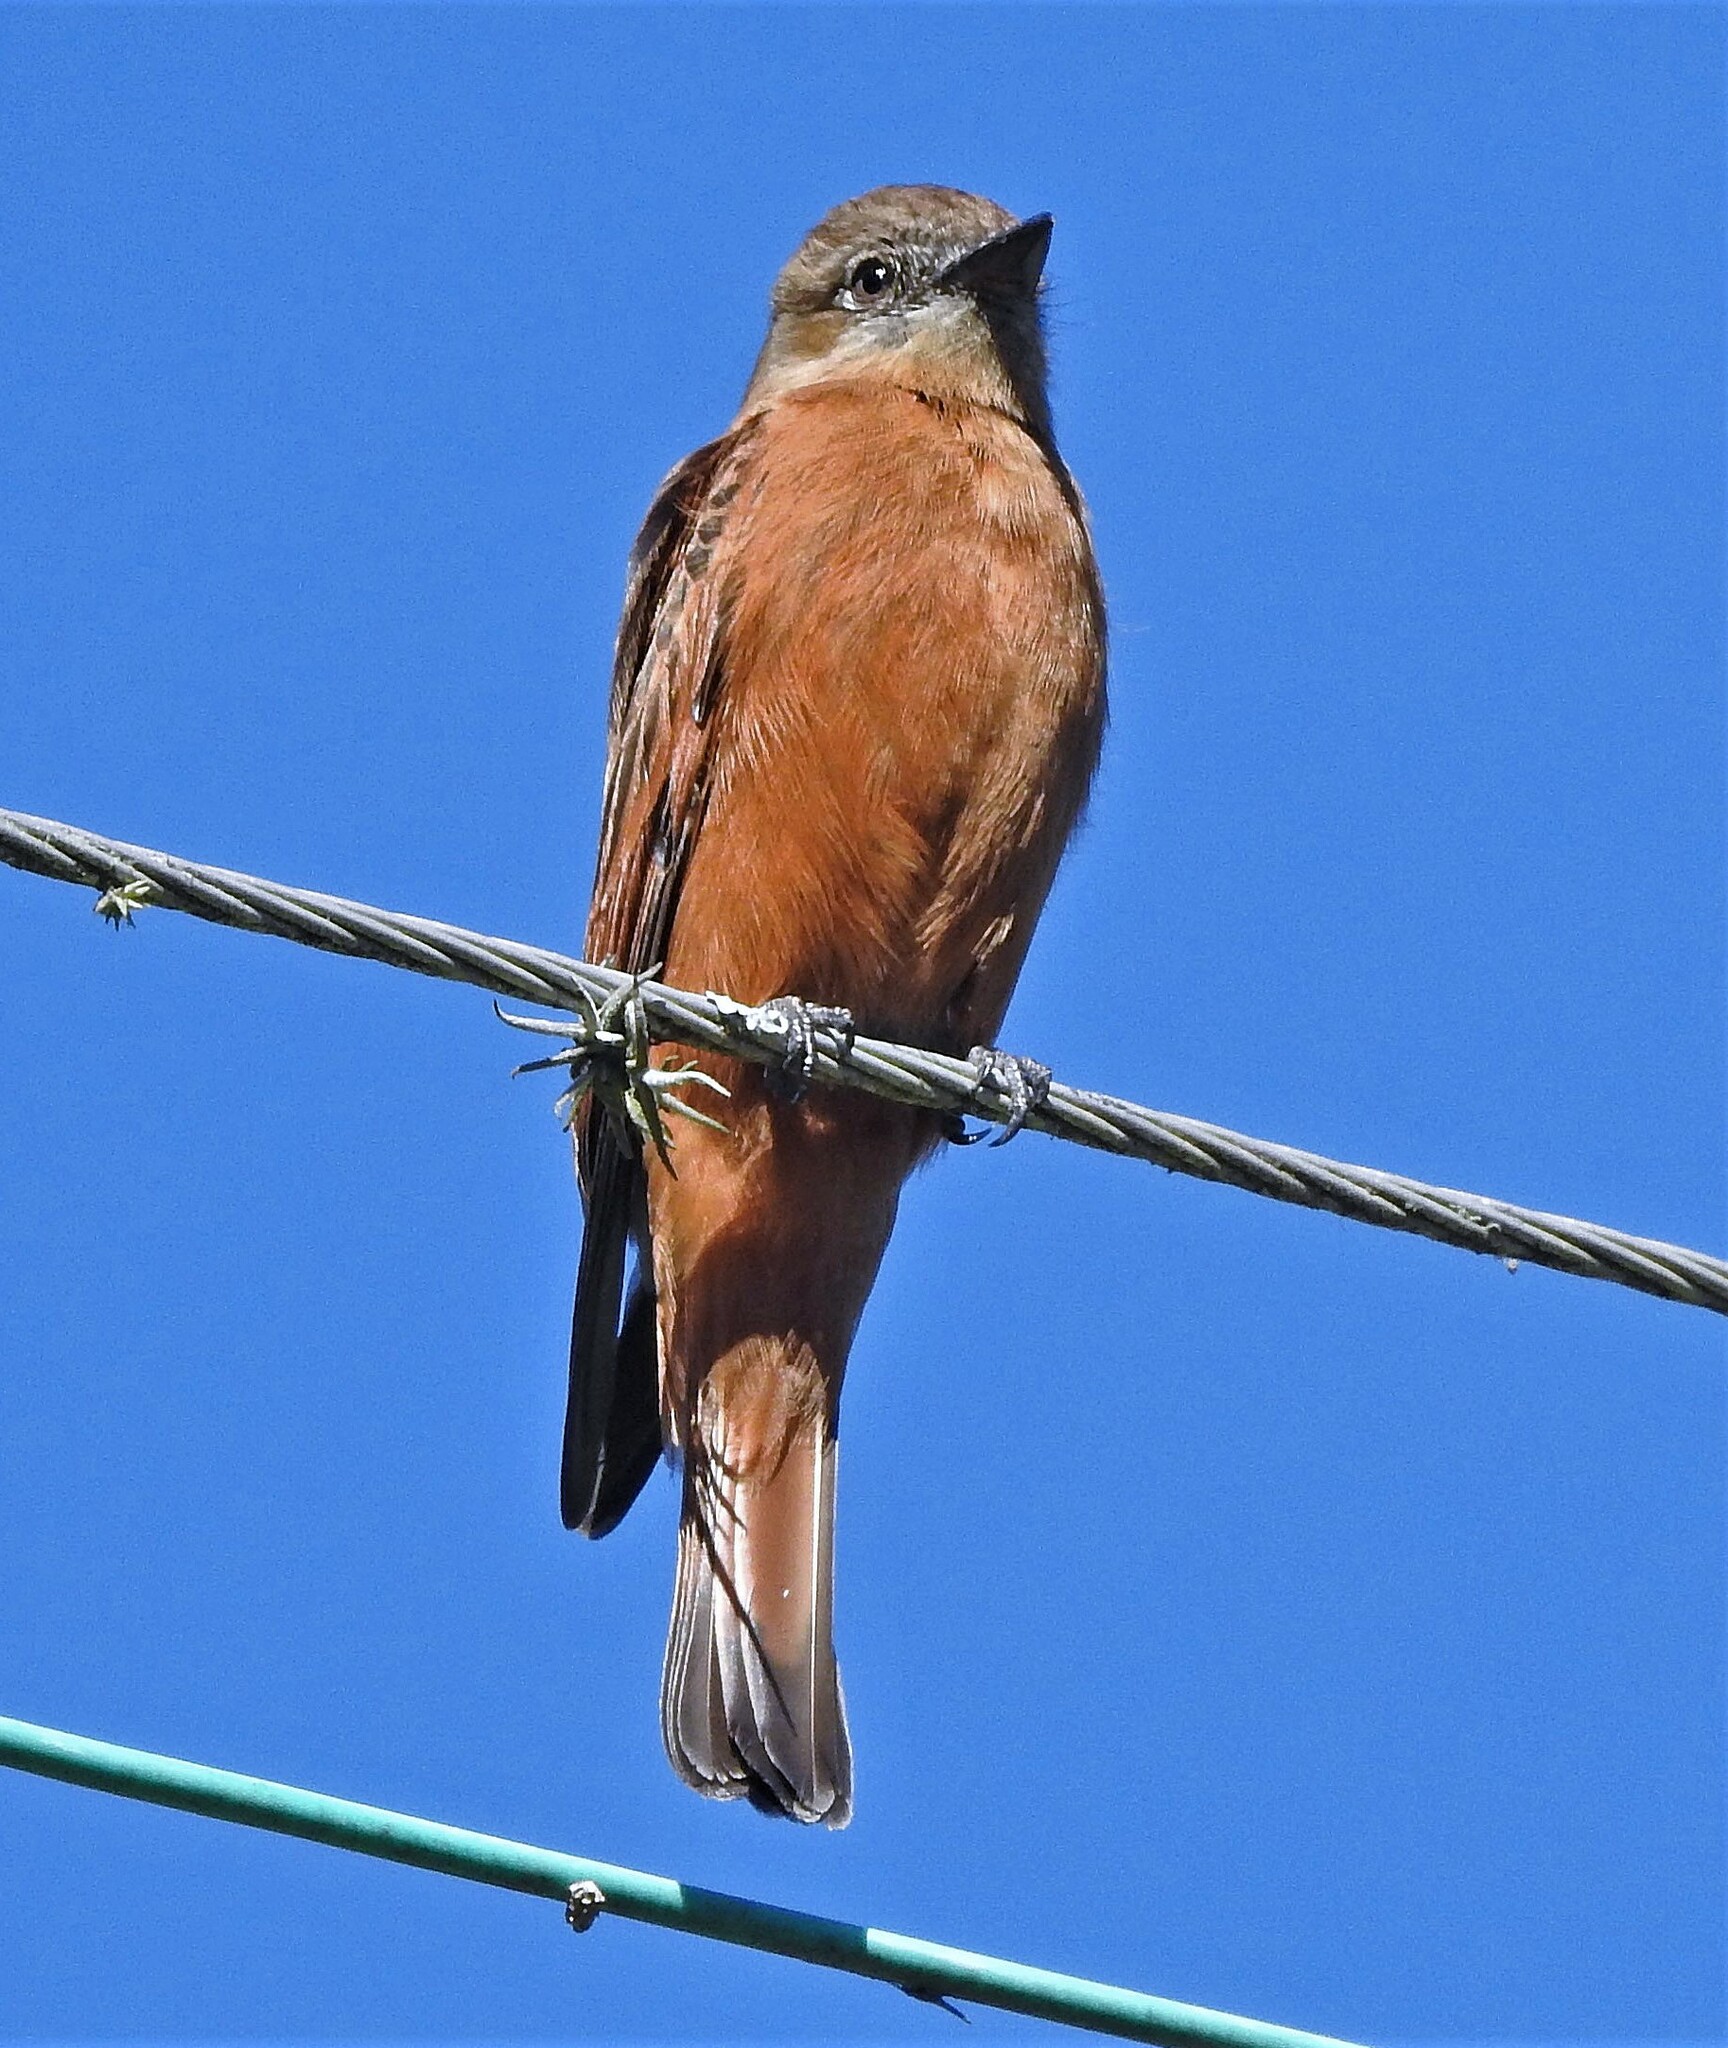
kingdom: Animalia
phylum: Chordata
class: Aves
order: Passeriformes
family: Tyrannidae
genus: Hirundinea
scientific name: Hirundinea ferruginea
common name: Cliff flycatcher
